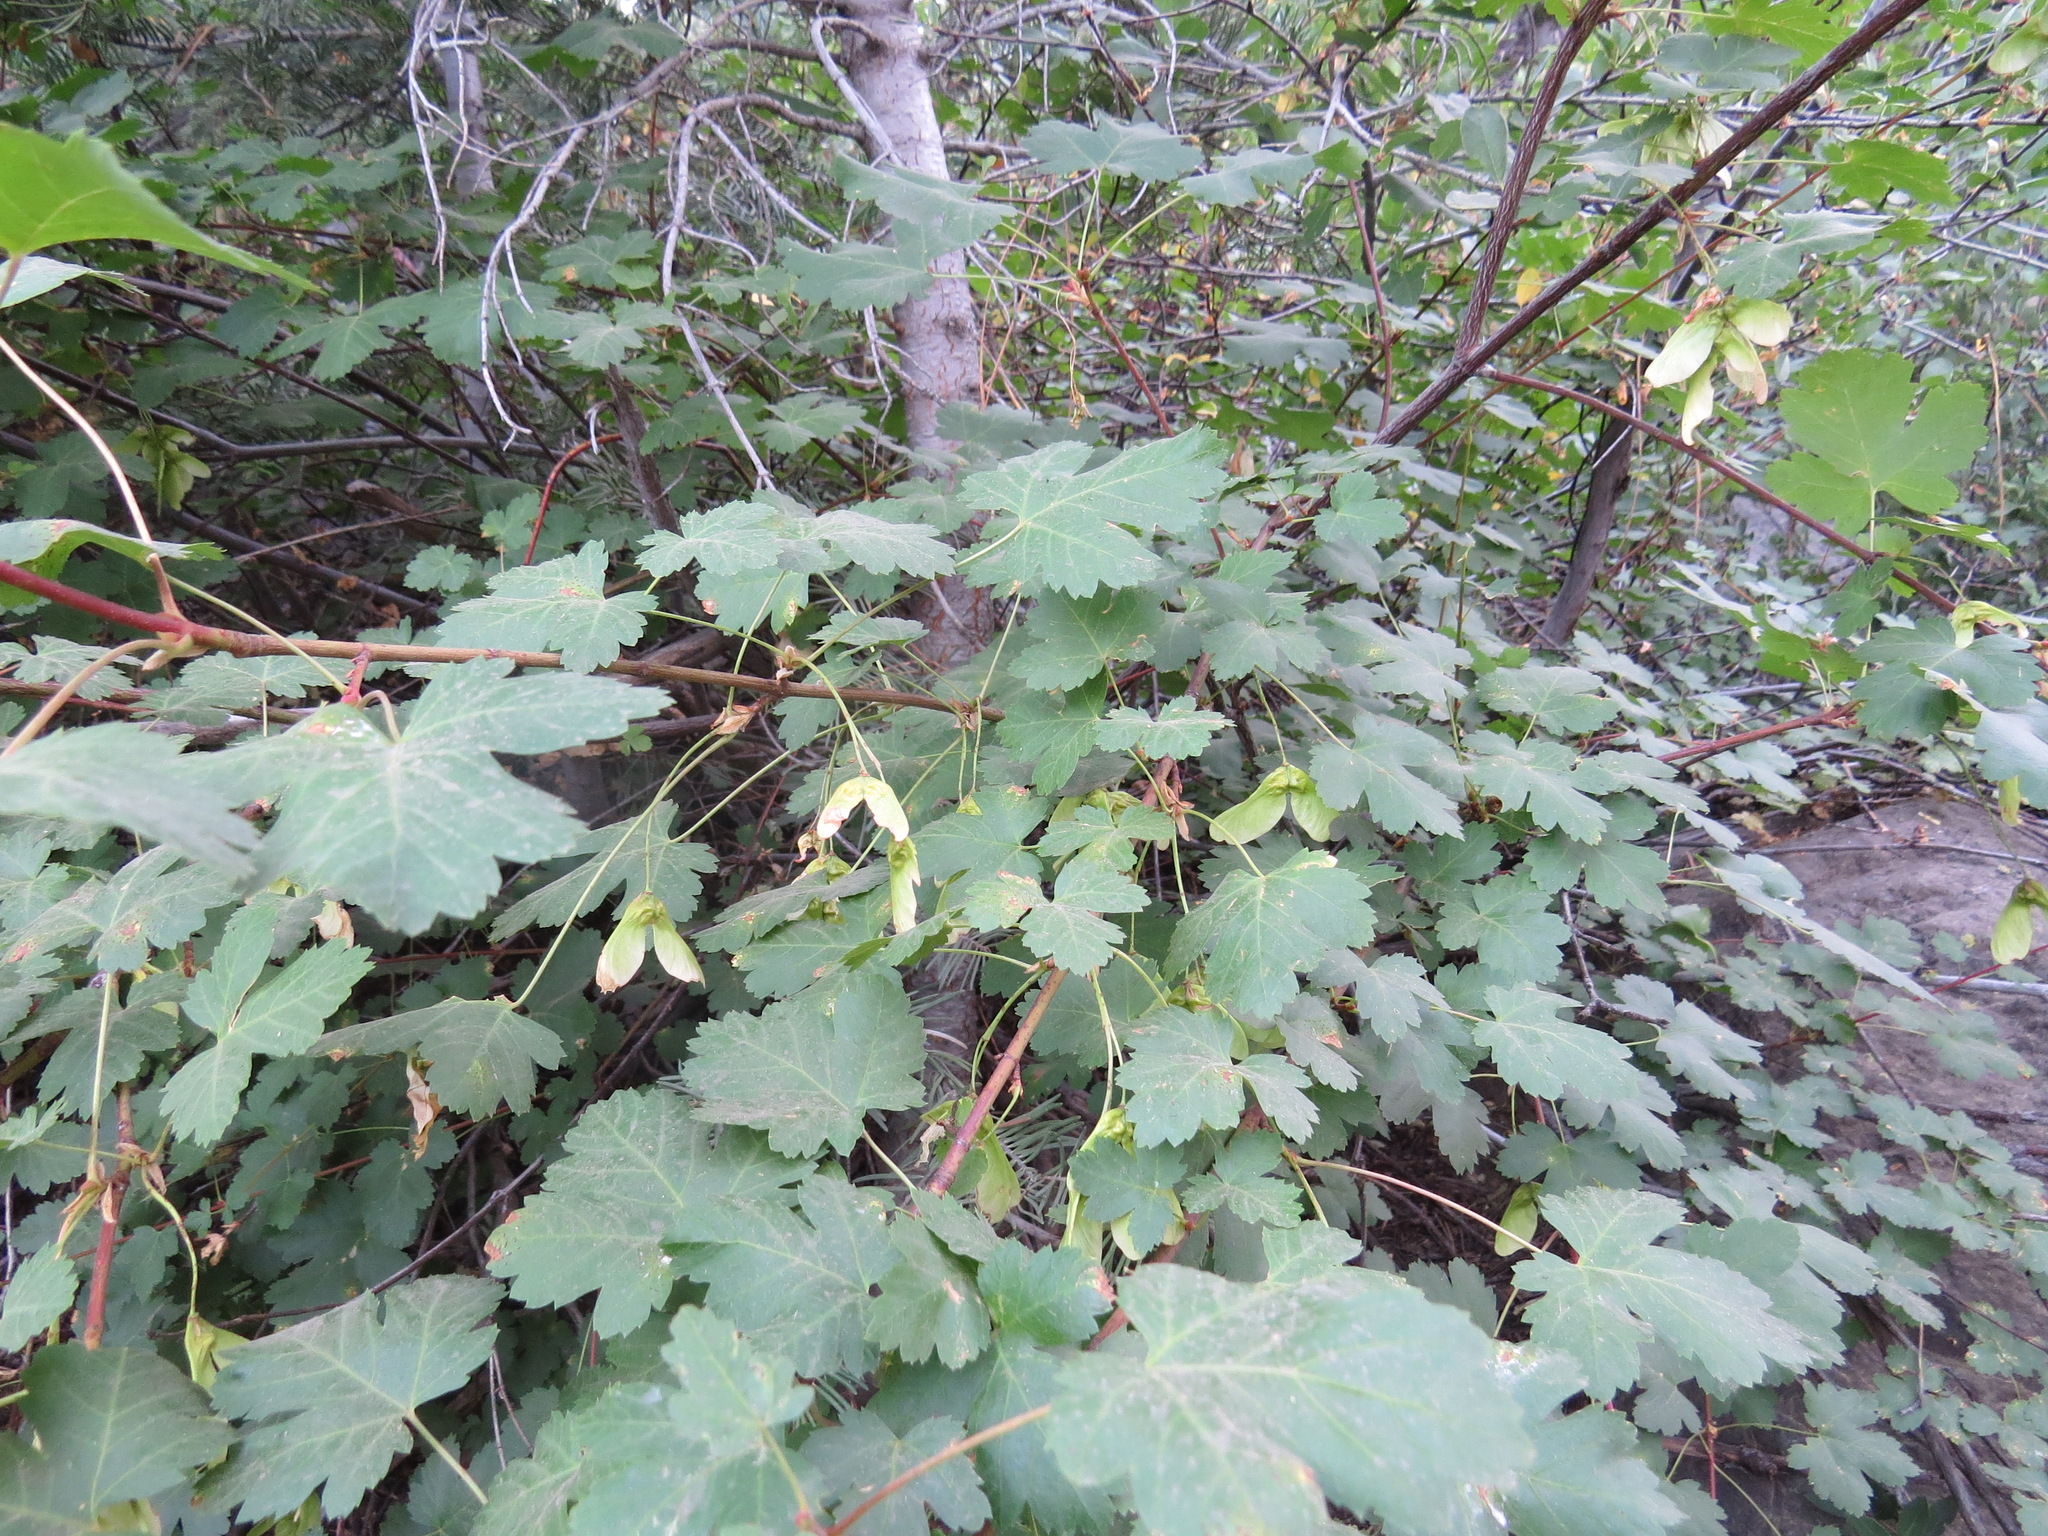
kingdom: Plantae
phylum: Tracheophyta
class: Magnoliopsida
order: Sapindales
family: Sapindaceae
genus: Acer
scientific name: Acer glabrum
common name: Rocky mountain maple
